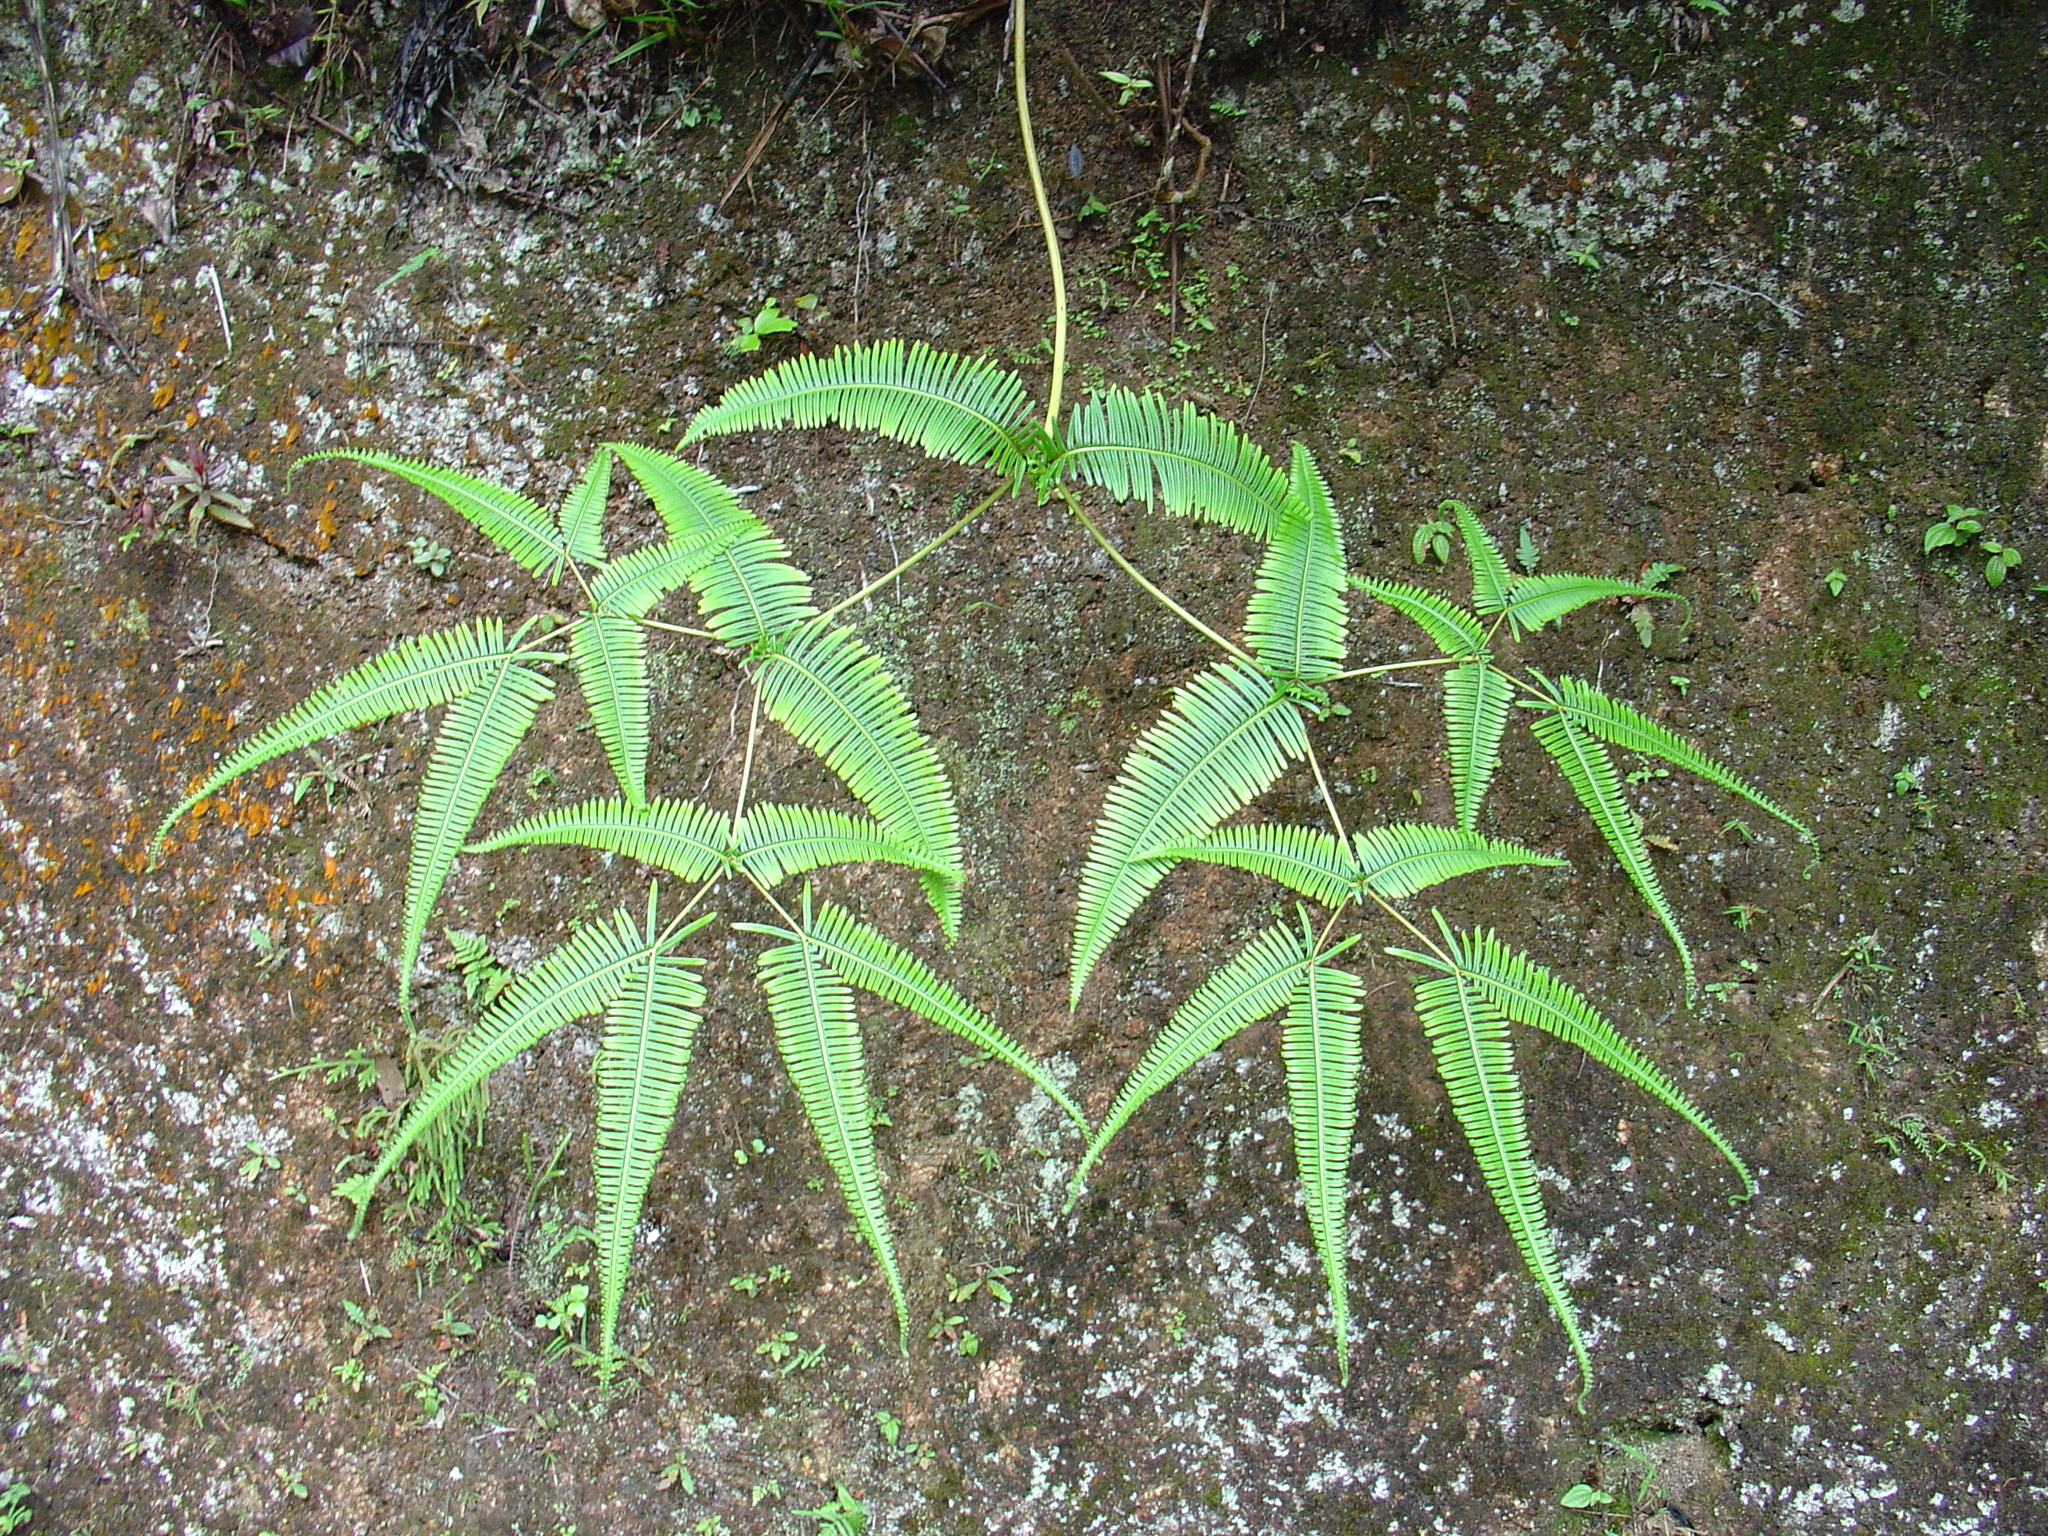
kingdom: Plantae
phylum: Tracheophyta
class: Polypodiopsida
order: Gleicheniales
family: Gleicheniaceae
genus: Dicranopteris
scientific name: Dicranopteris linearis
